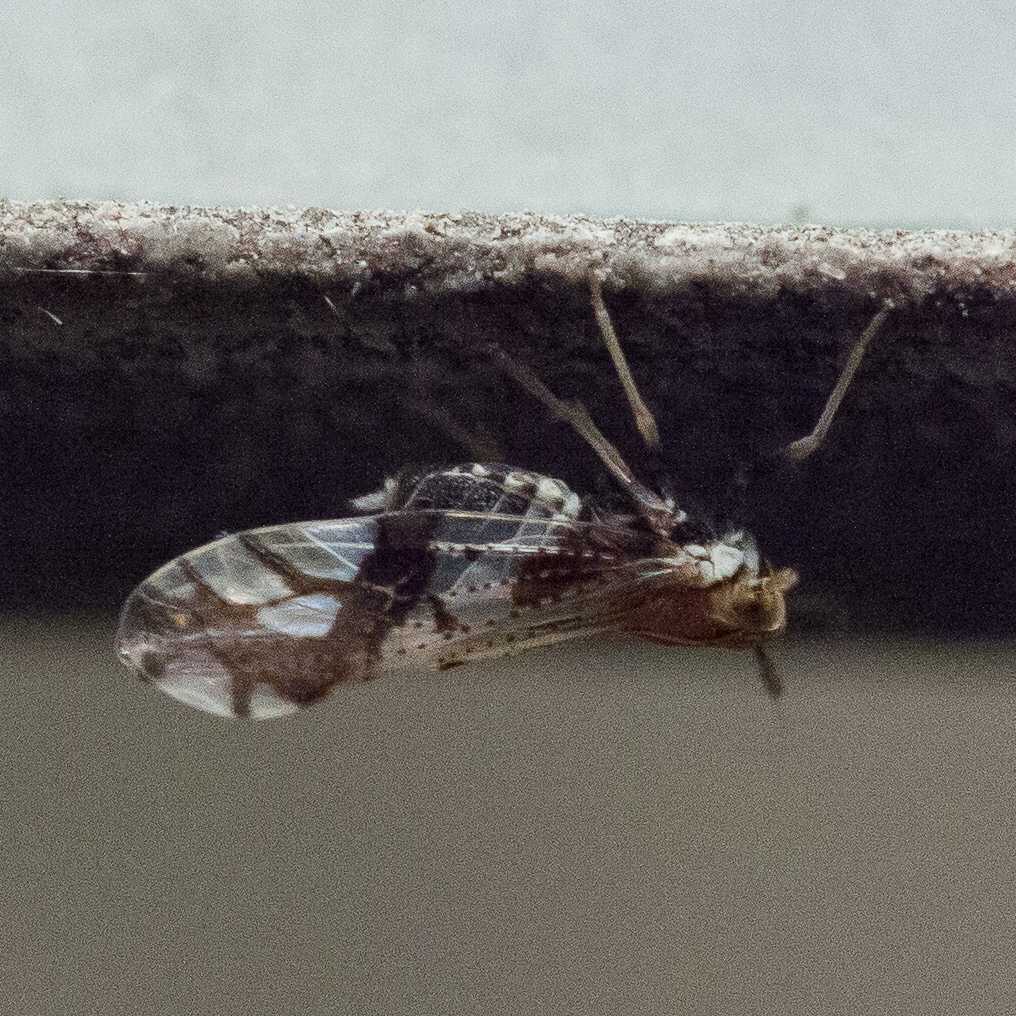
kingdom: Animalia
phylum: Arthropoda
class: Insecta
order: Hemiptera
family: Delphacidae
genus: Liburniella
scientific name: Liburniella ornata
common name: Ornate planthopper
